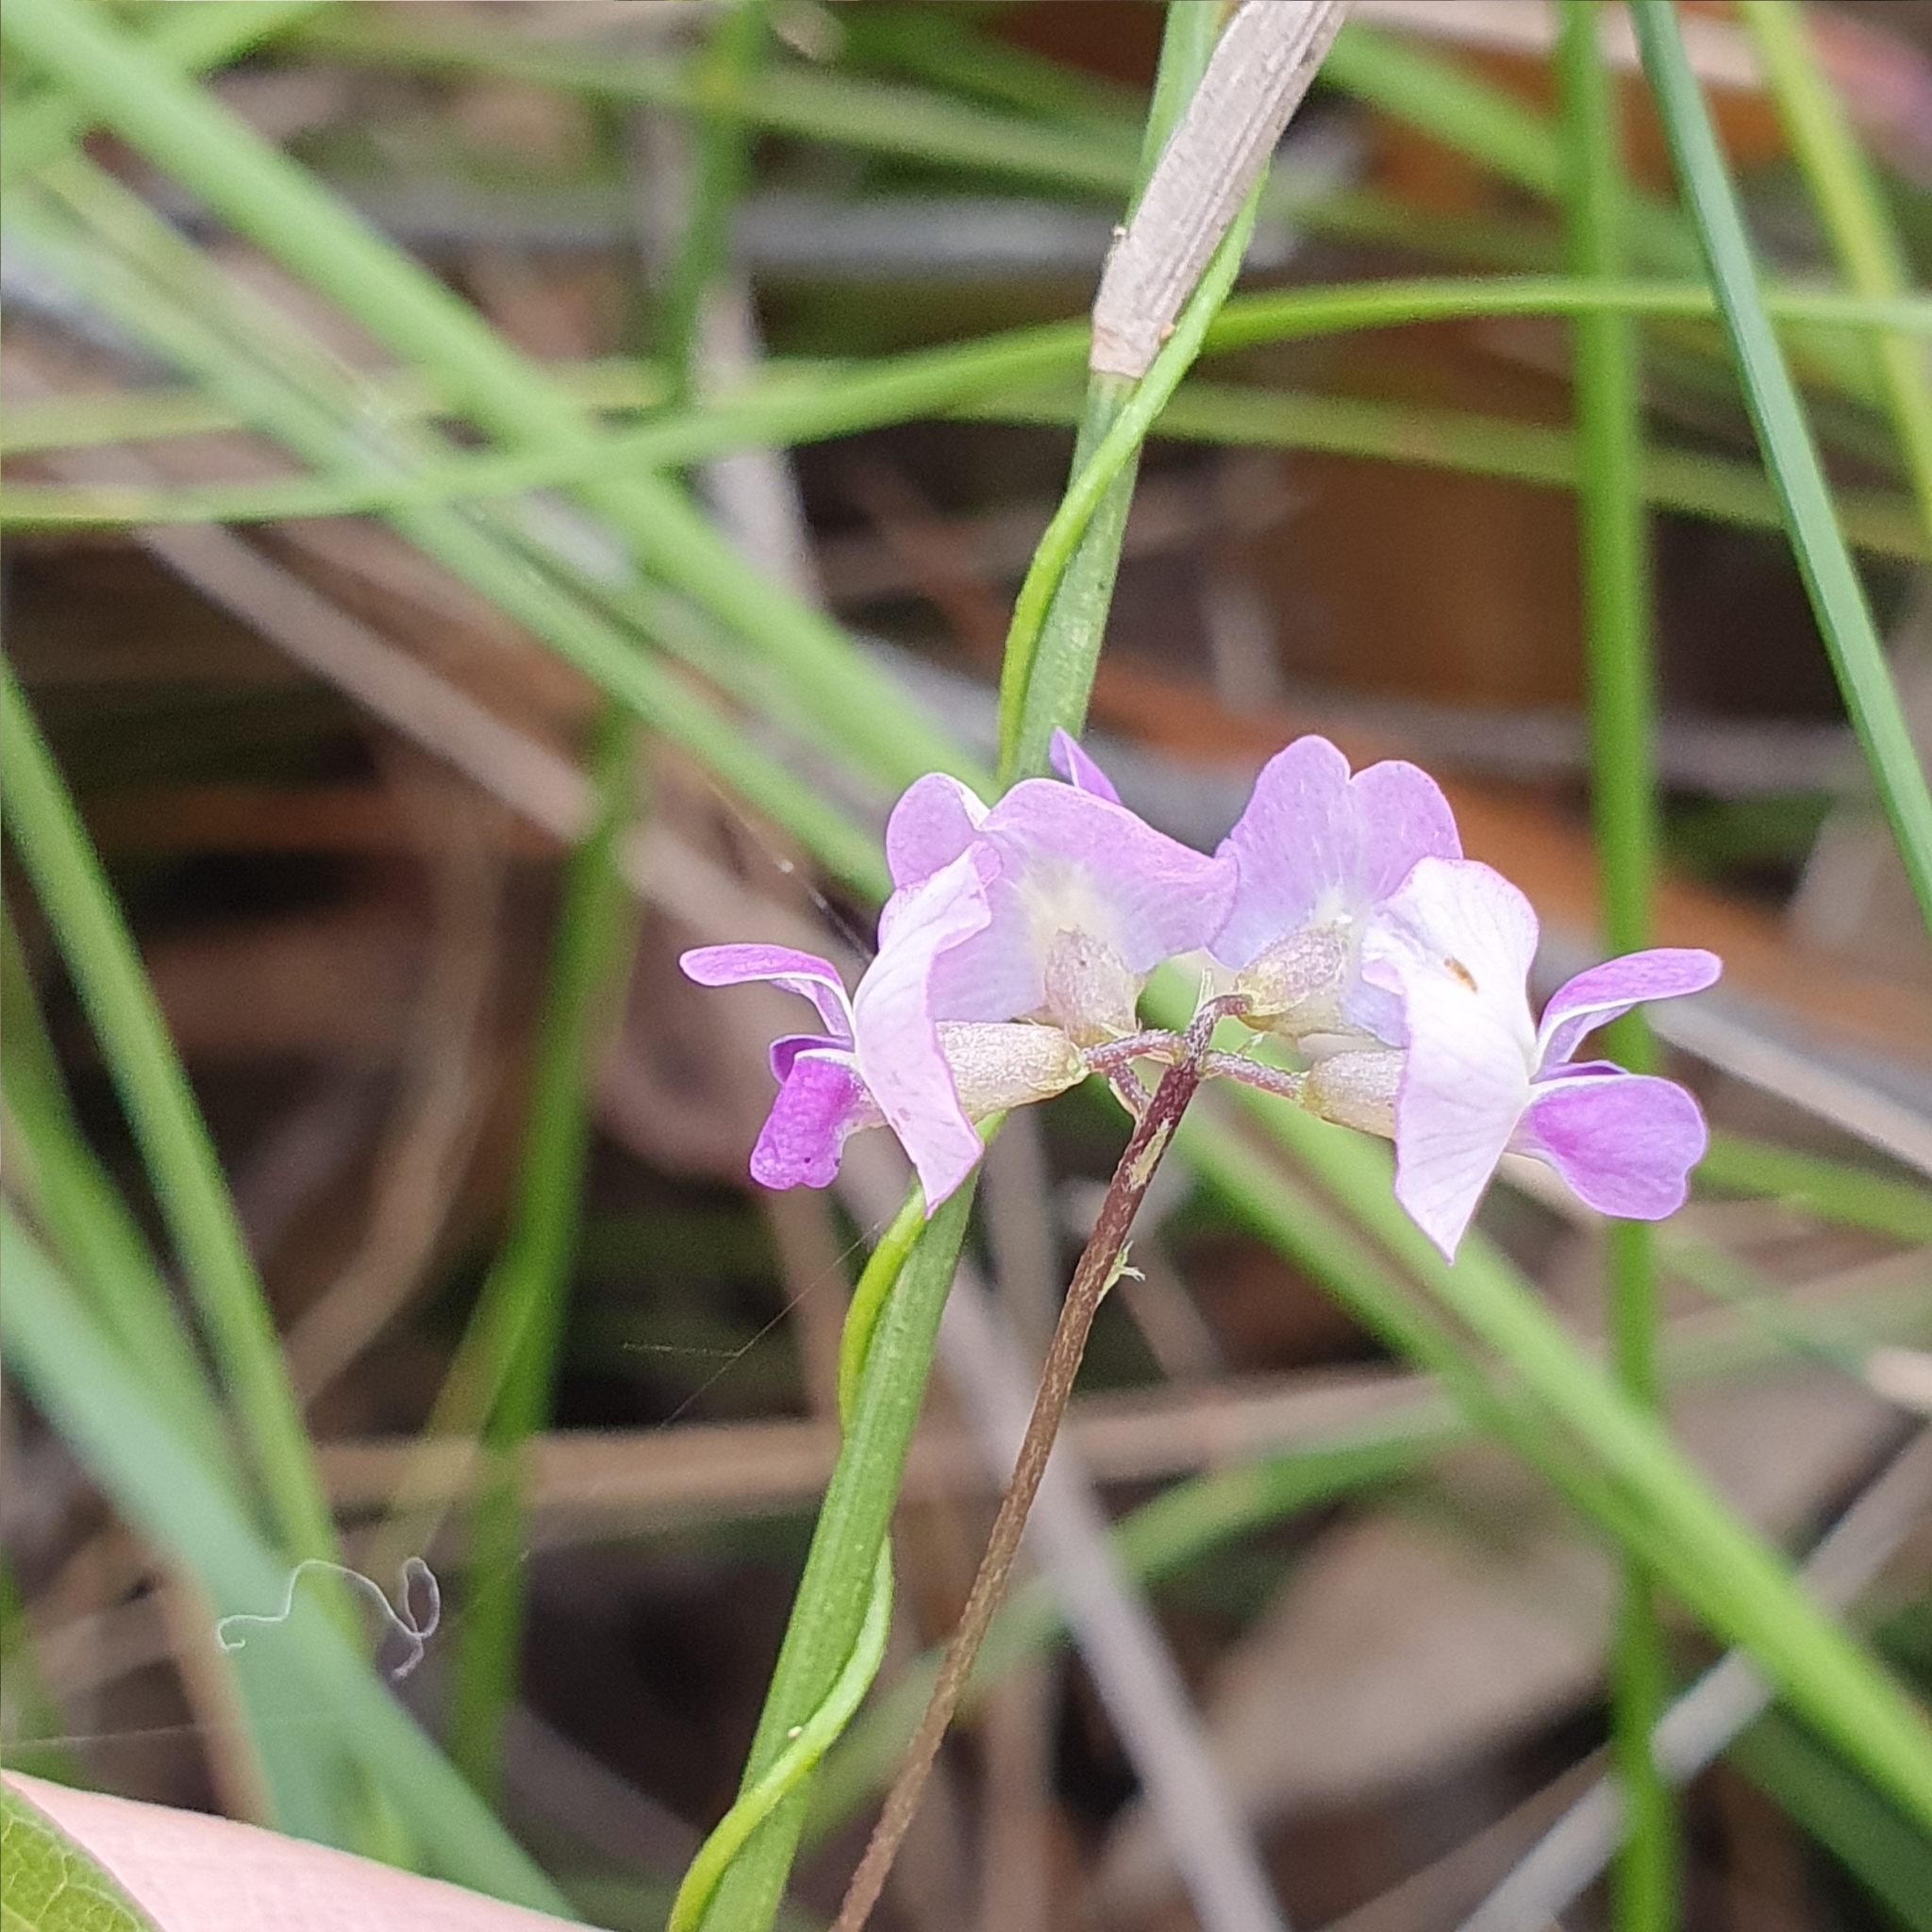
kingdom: Plantae
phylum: Tracheophyta
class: Magnoliopsida
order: Fabales
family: Fabaceae
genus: Glycine
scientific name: Glycine clandestina
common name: Twining glycine
